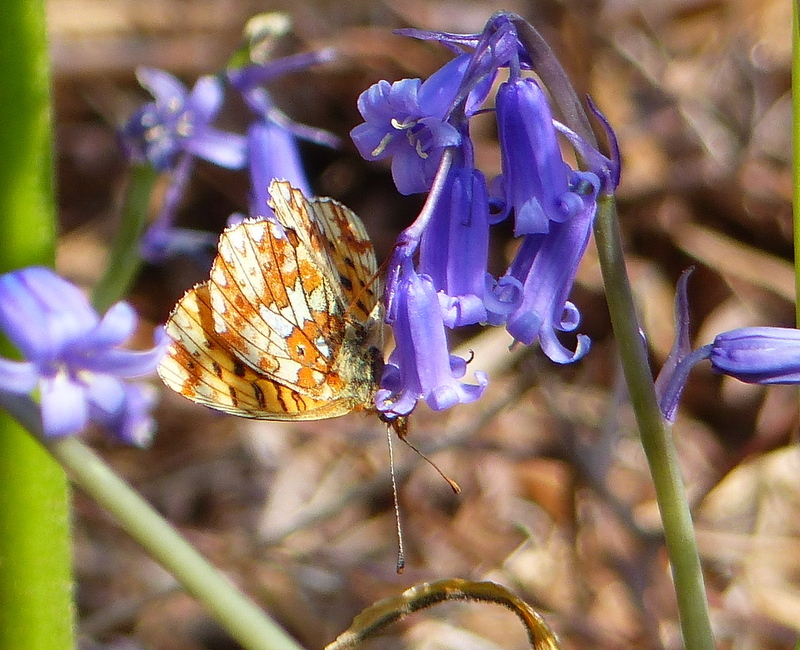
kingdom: Animalia
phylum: Arthropoda
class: Insecta
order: Lepidoptera
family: Nymphalidae
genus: Clossiana
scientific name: Clossiana euphrosyne
